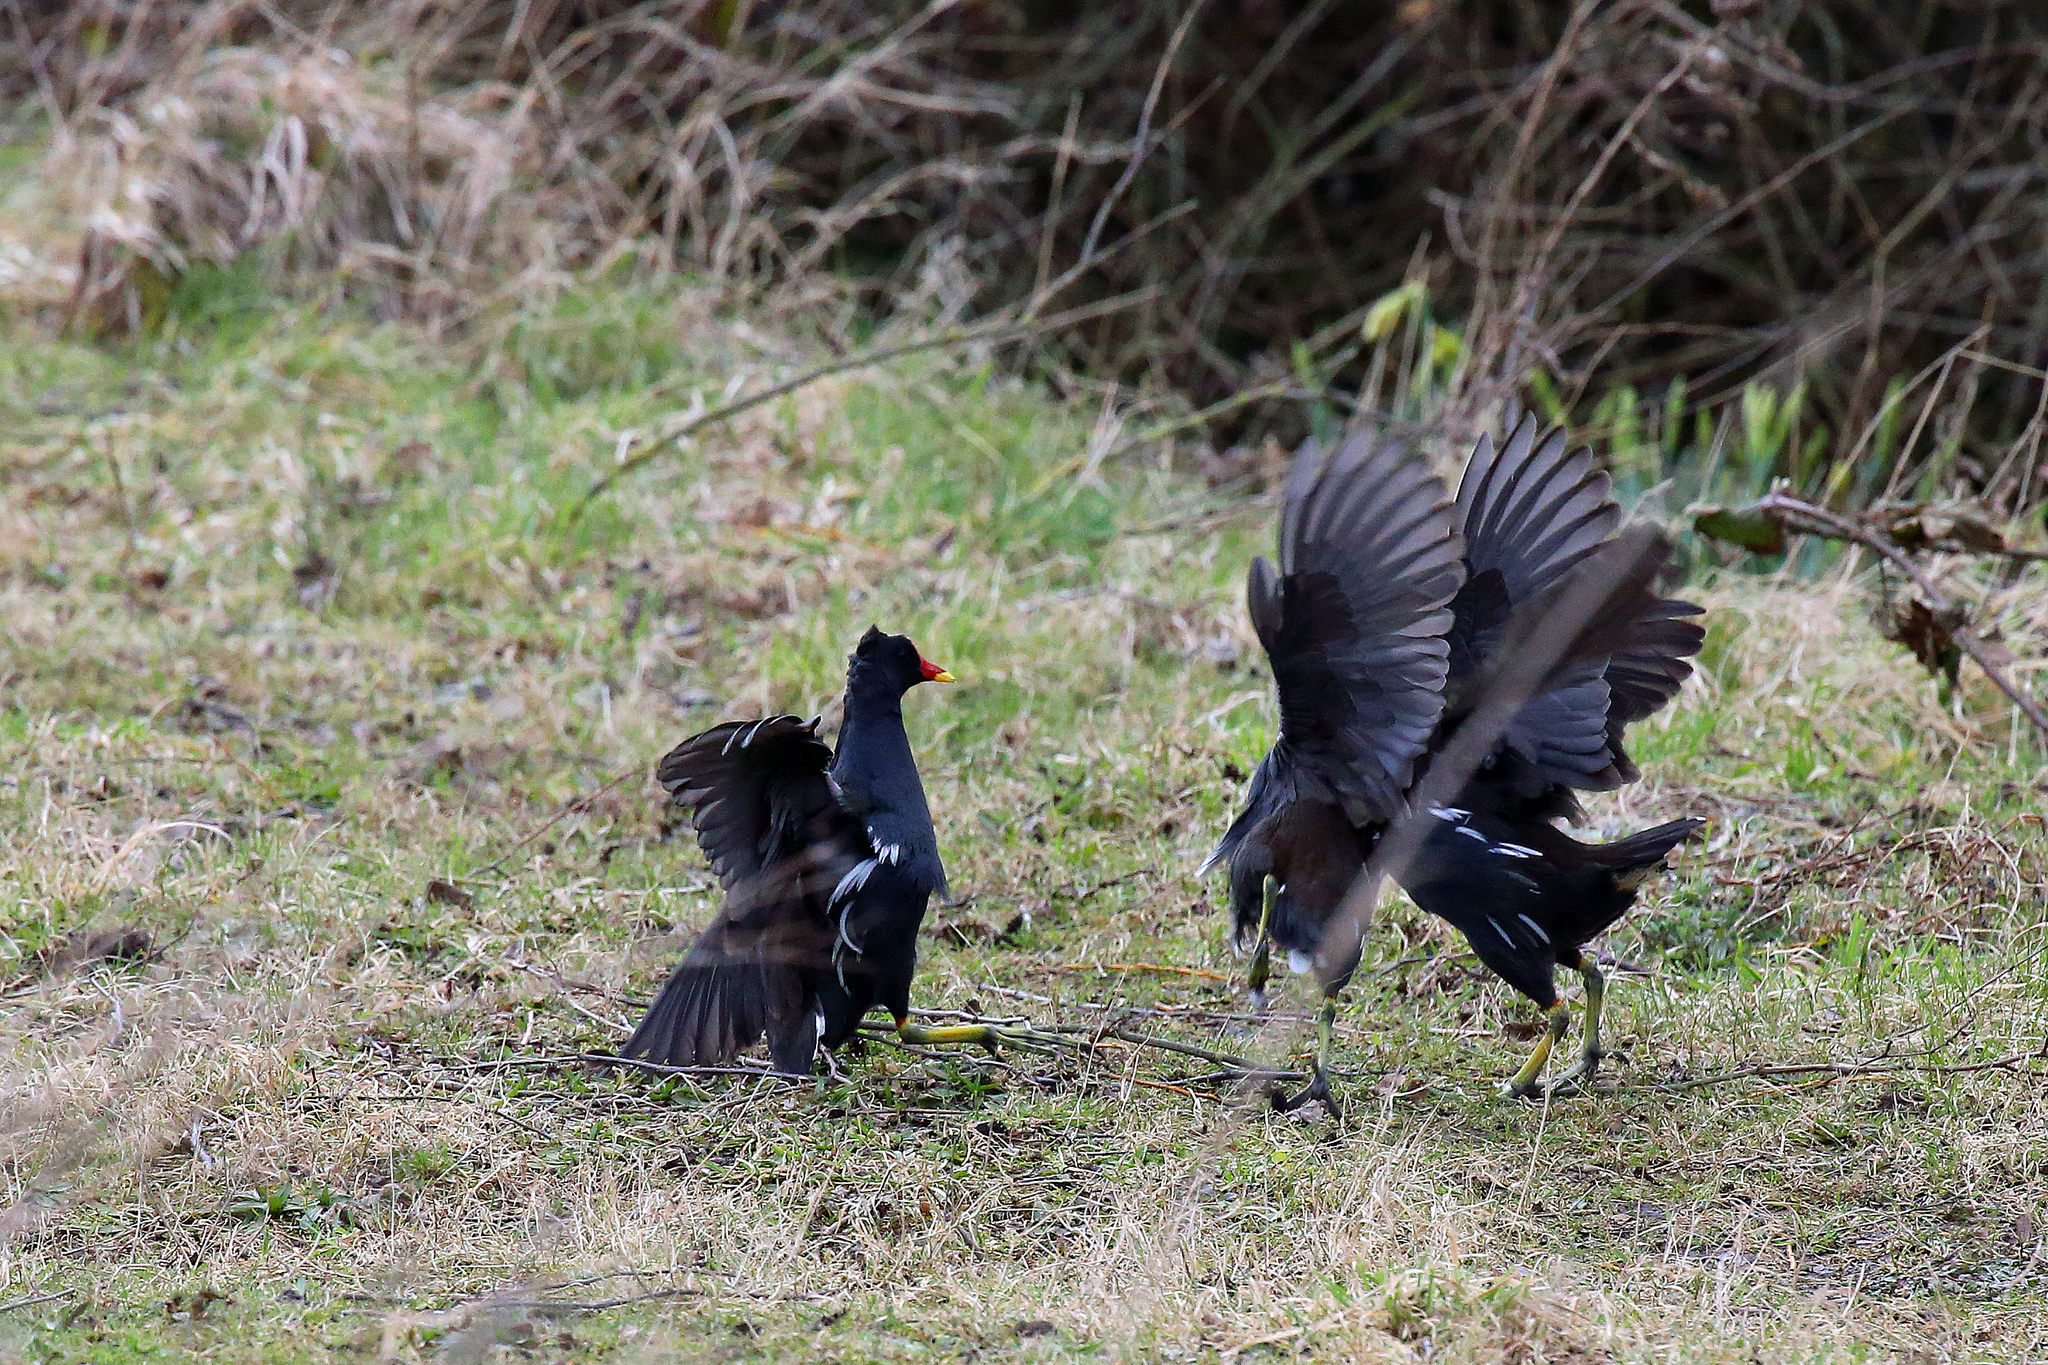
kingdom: Animalia
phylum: Chordata
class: Aves
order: Gruiformes
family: Rallidae
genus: Gallinula
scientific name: Gallinula chloropus
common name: Common moorhen
